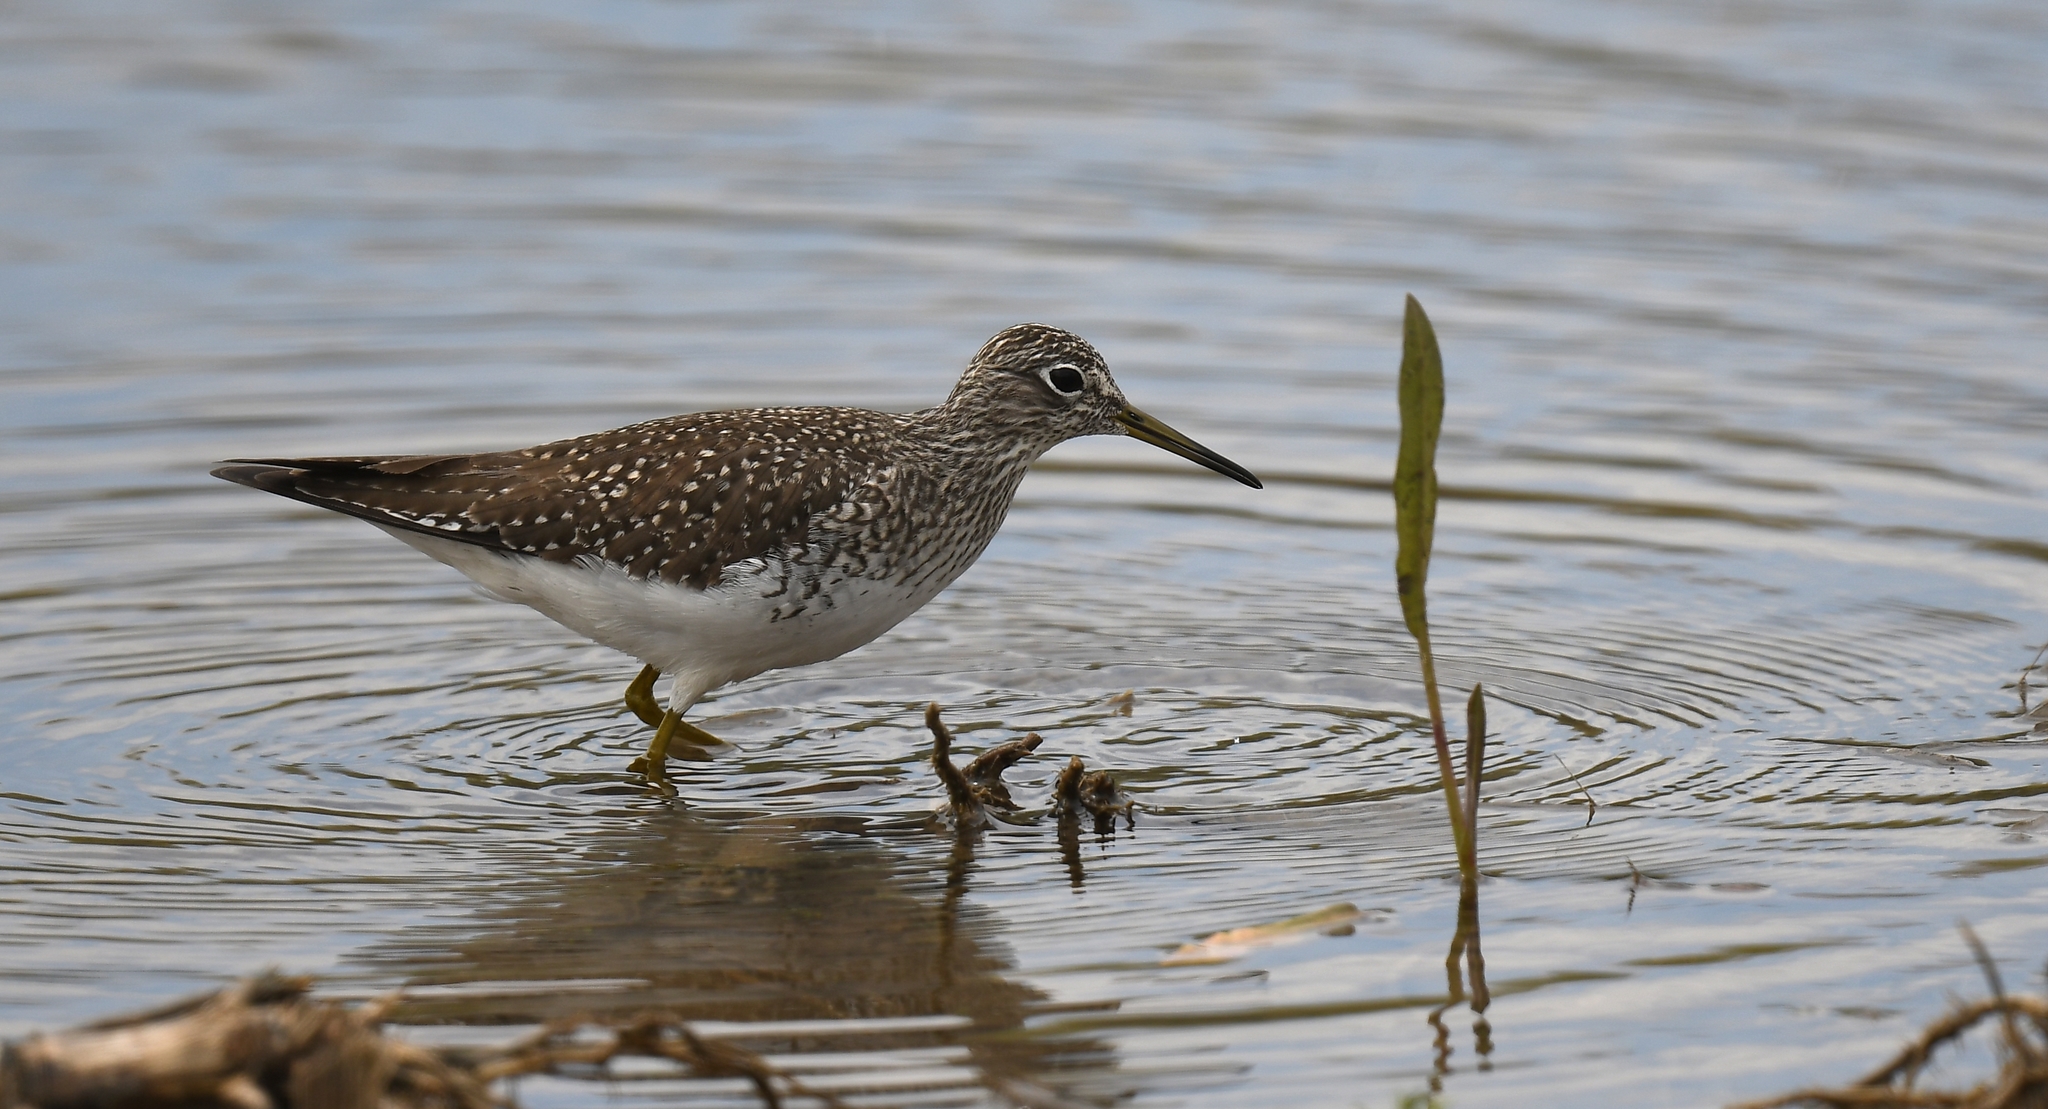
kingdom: Animalia
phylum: Chordata
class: Aves
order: Charadriiformes
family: Scolopacidae
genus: Tringa
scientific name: Tringa solitaria
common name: Solitary sandpiper
